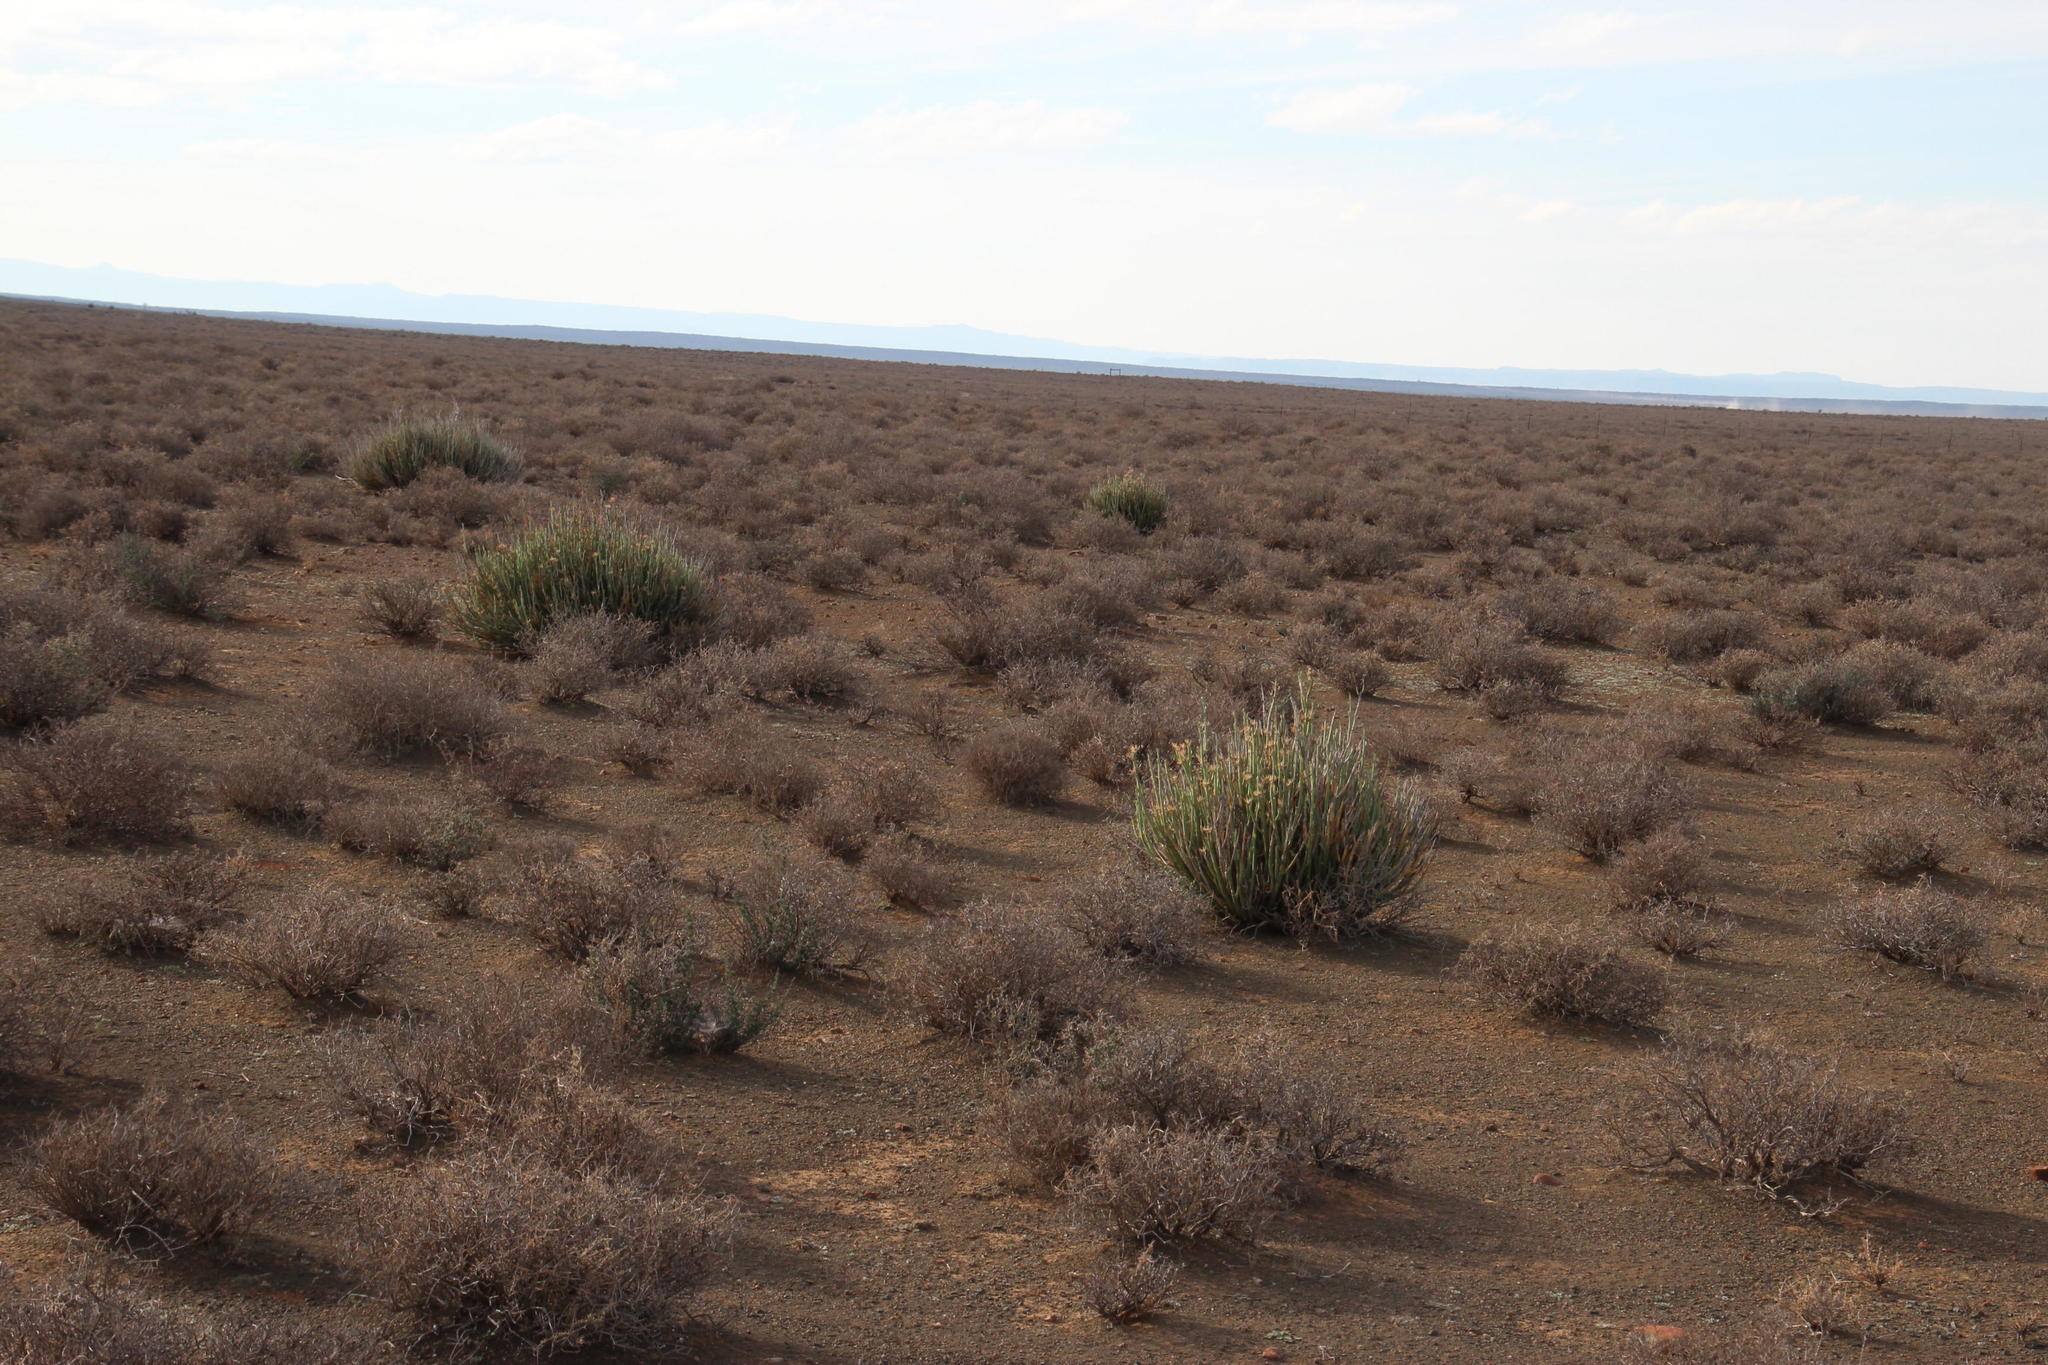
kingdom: Plantae
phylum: Tracheophyta
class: Magnoliopsida
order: Asterales
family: Asteraceae
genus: Curio
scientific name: Curio avasimontanus
